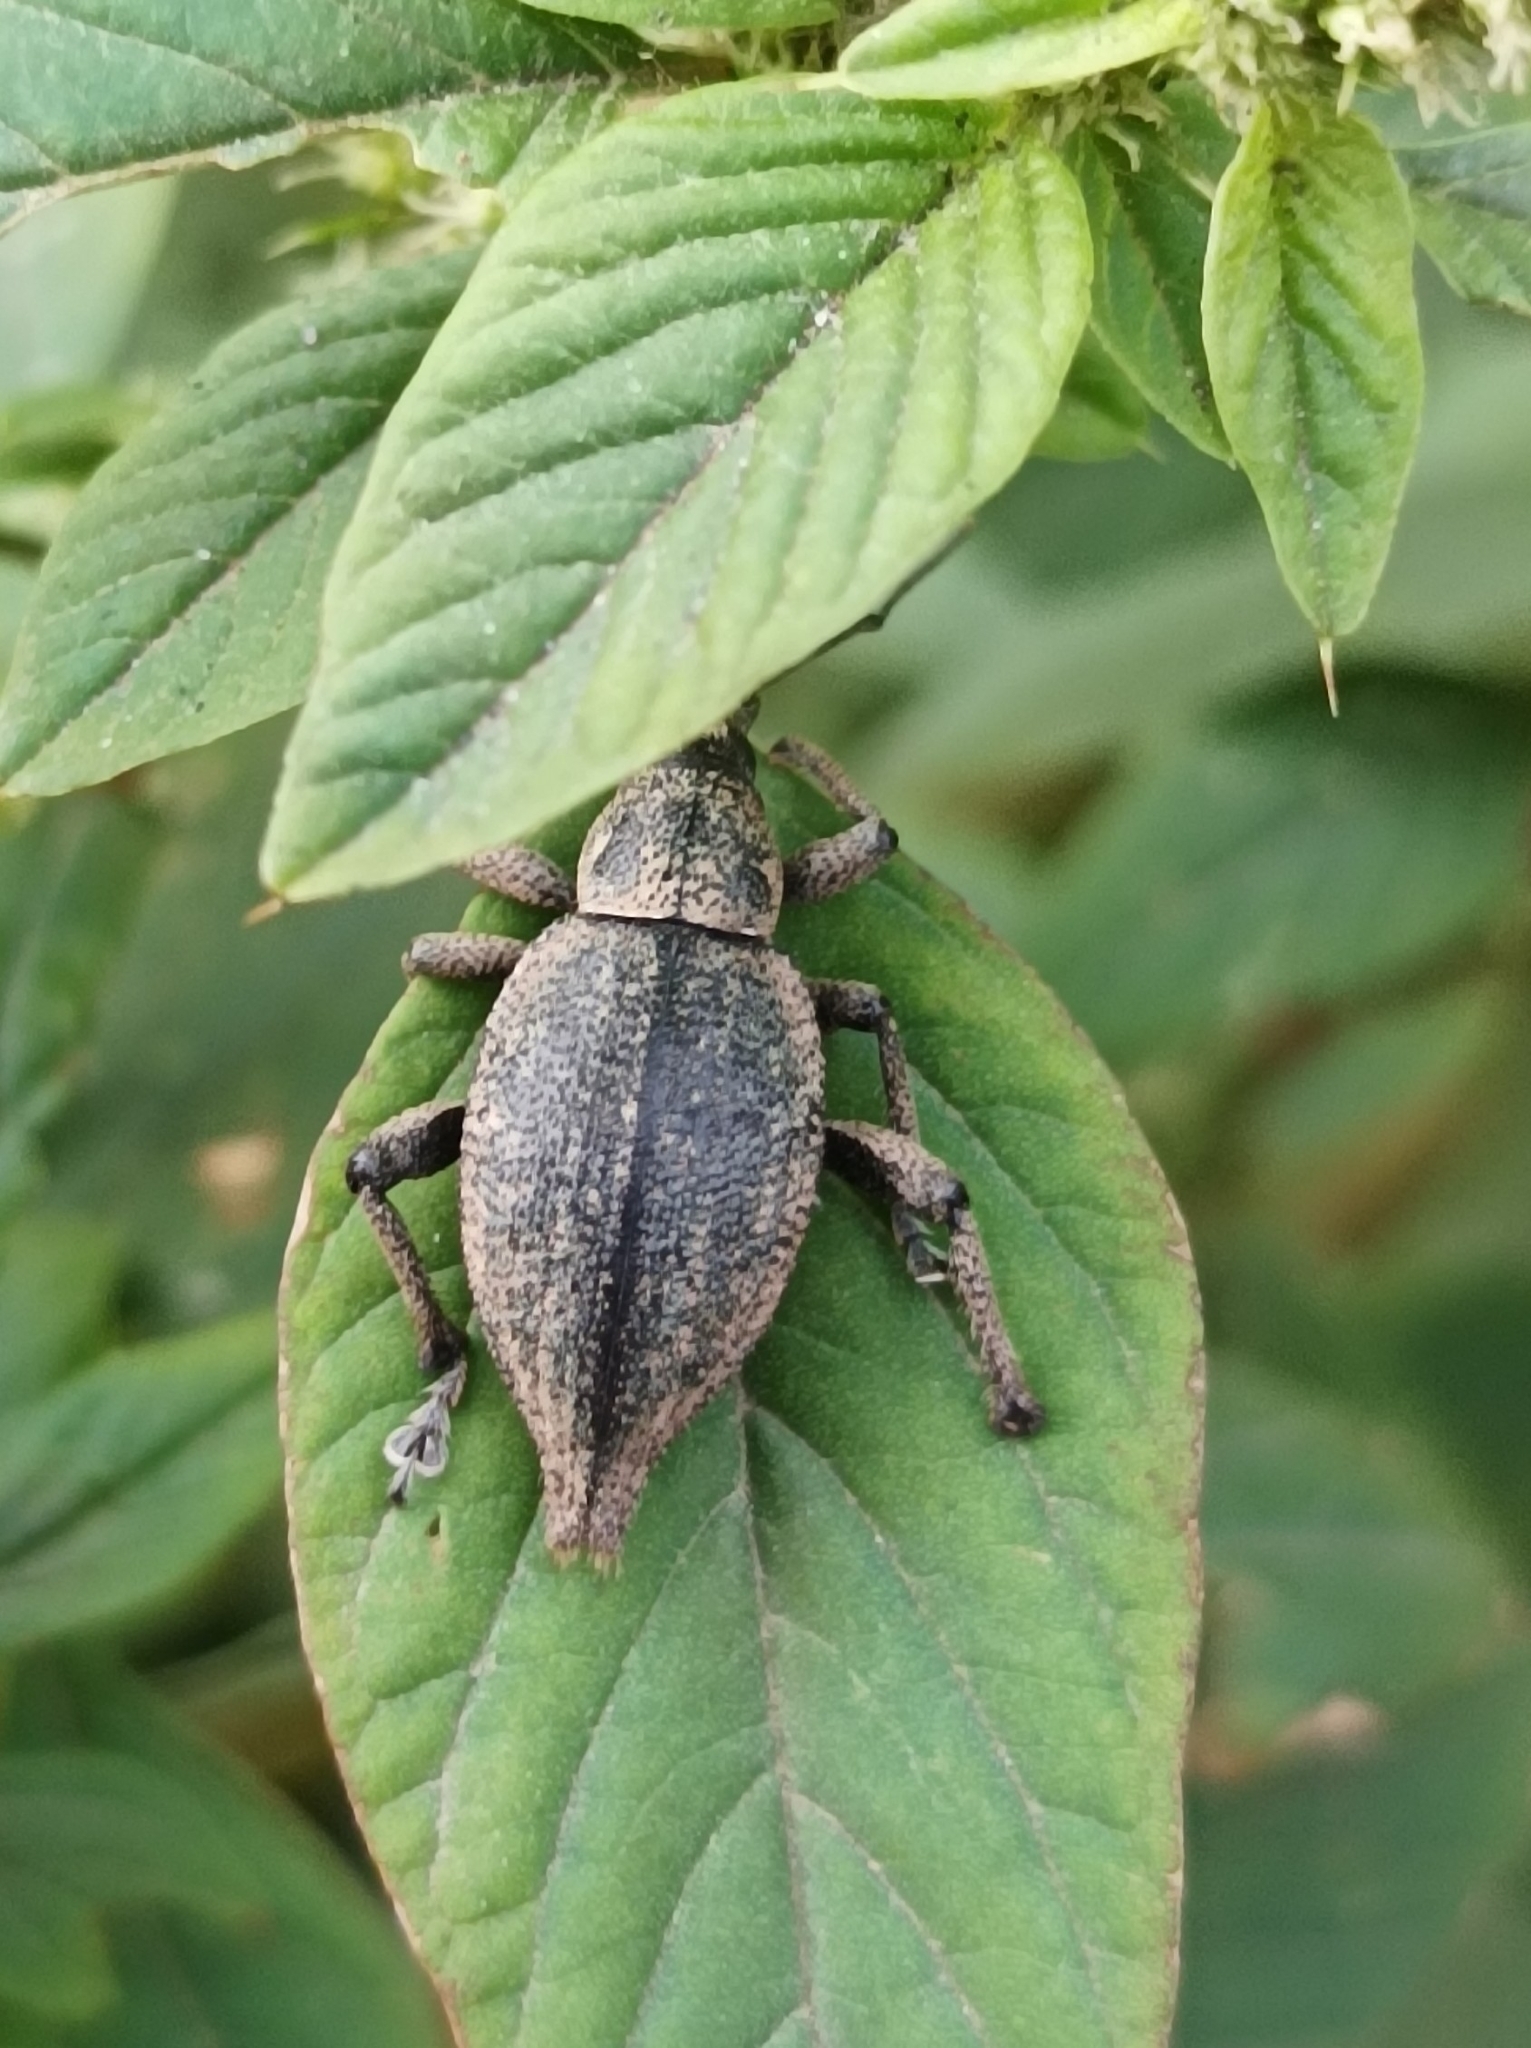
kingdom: Animalia
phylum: Arthropoda
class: Insecta
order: Coleoptera
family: Curculionidae
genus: Elytrurus
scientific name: Elytrurus serrulatus
